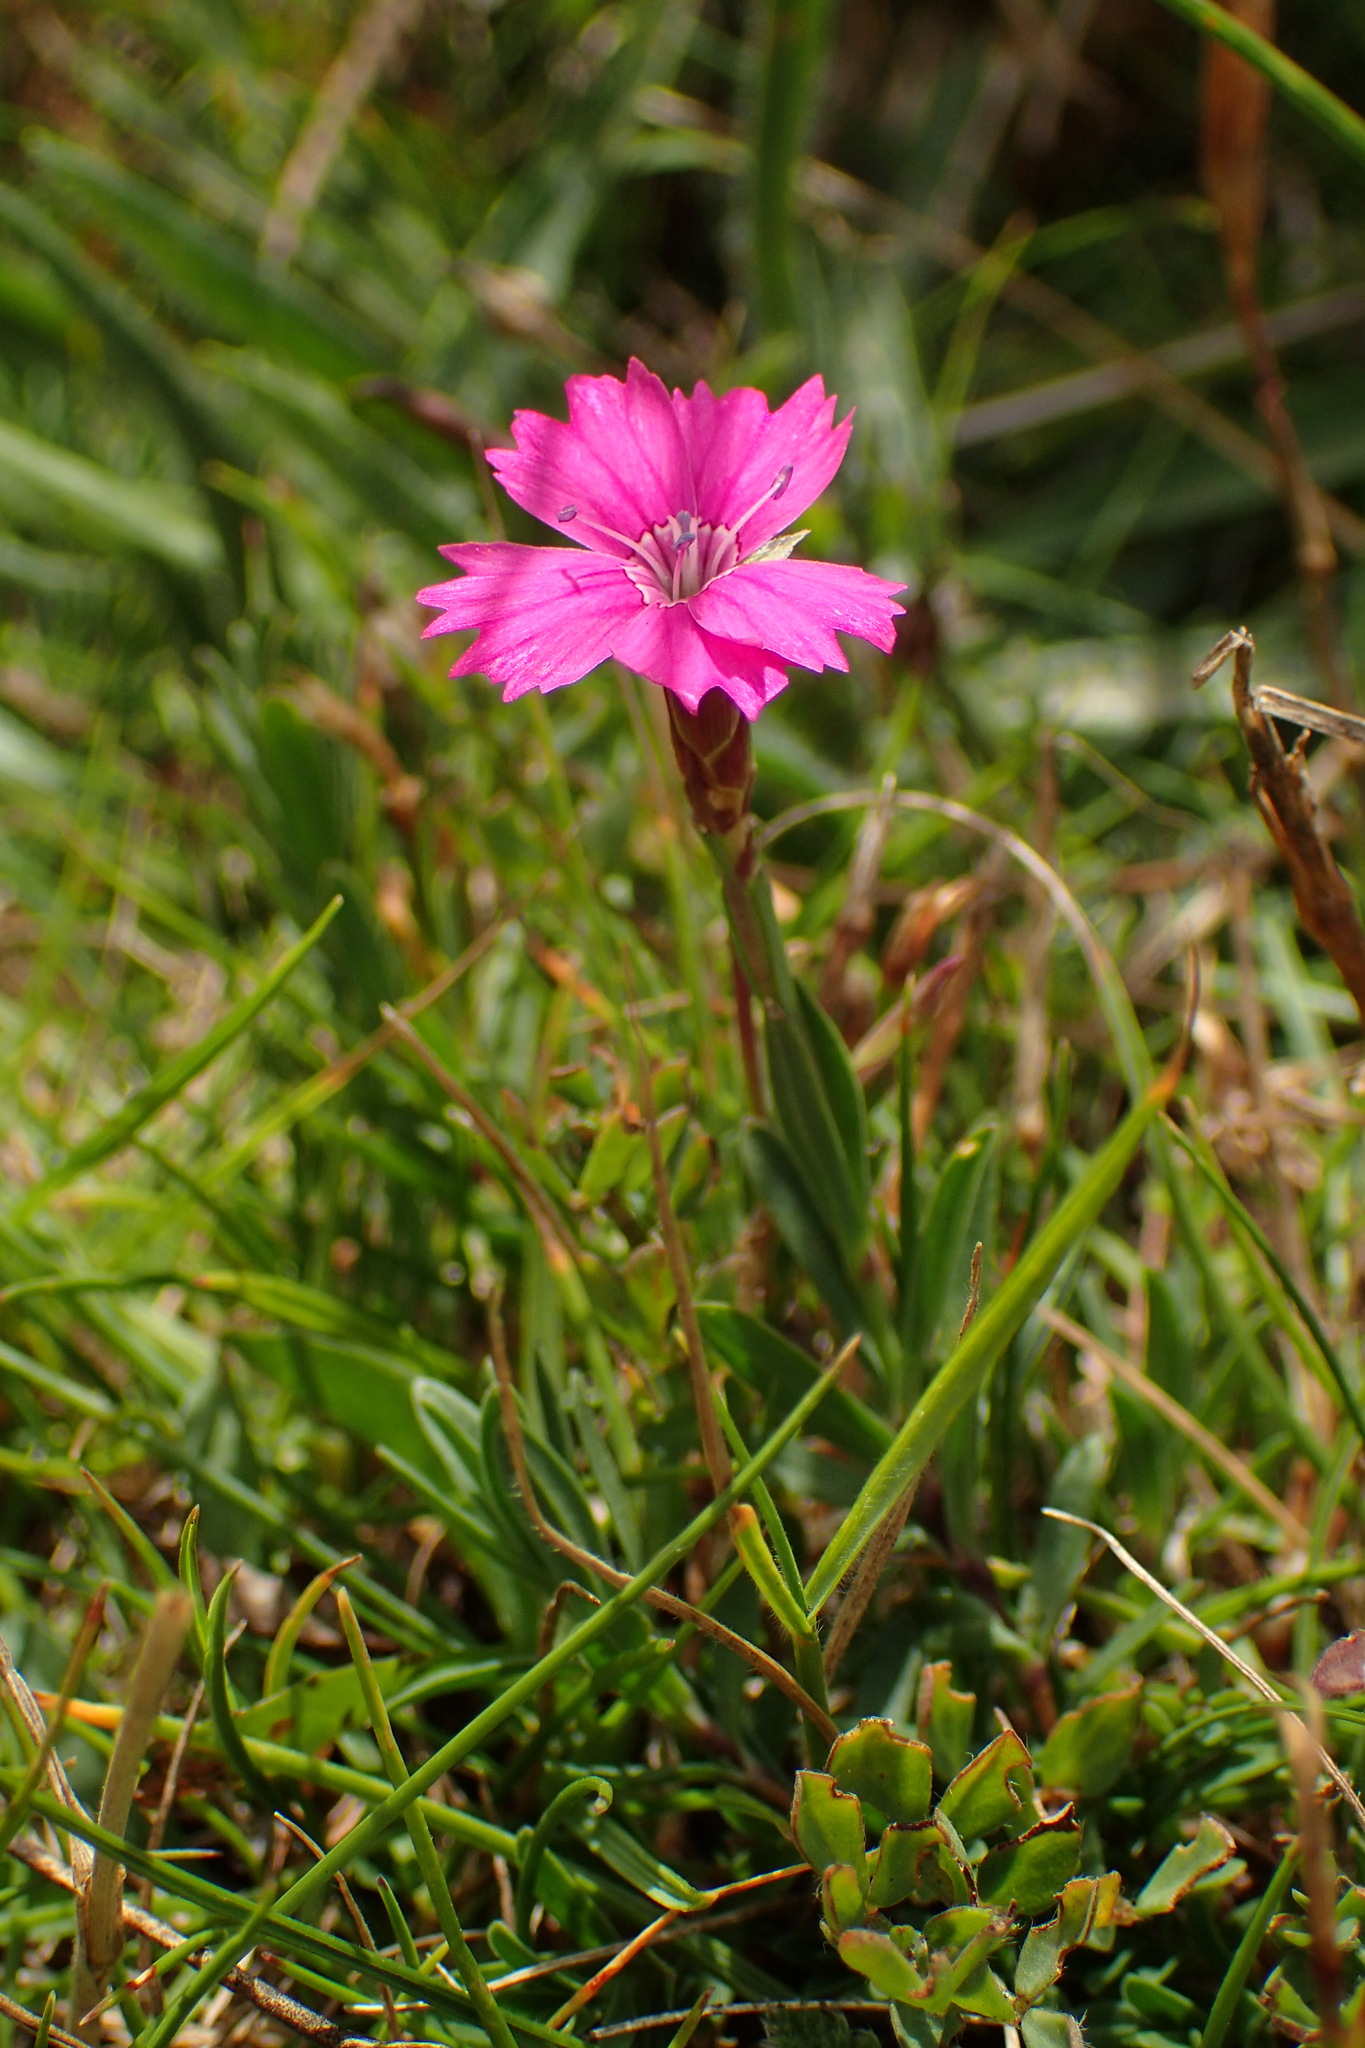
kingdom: Plantae
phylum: Tracheophyta
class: Magnoliopsida
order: Caryophyllales
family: Caryophyllaceae
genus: Dianthus
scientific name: Dianthus deltoides
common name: Maiden pink
